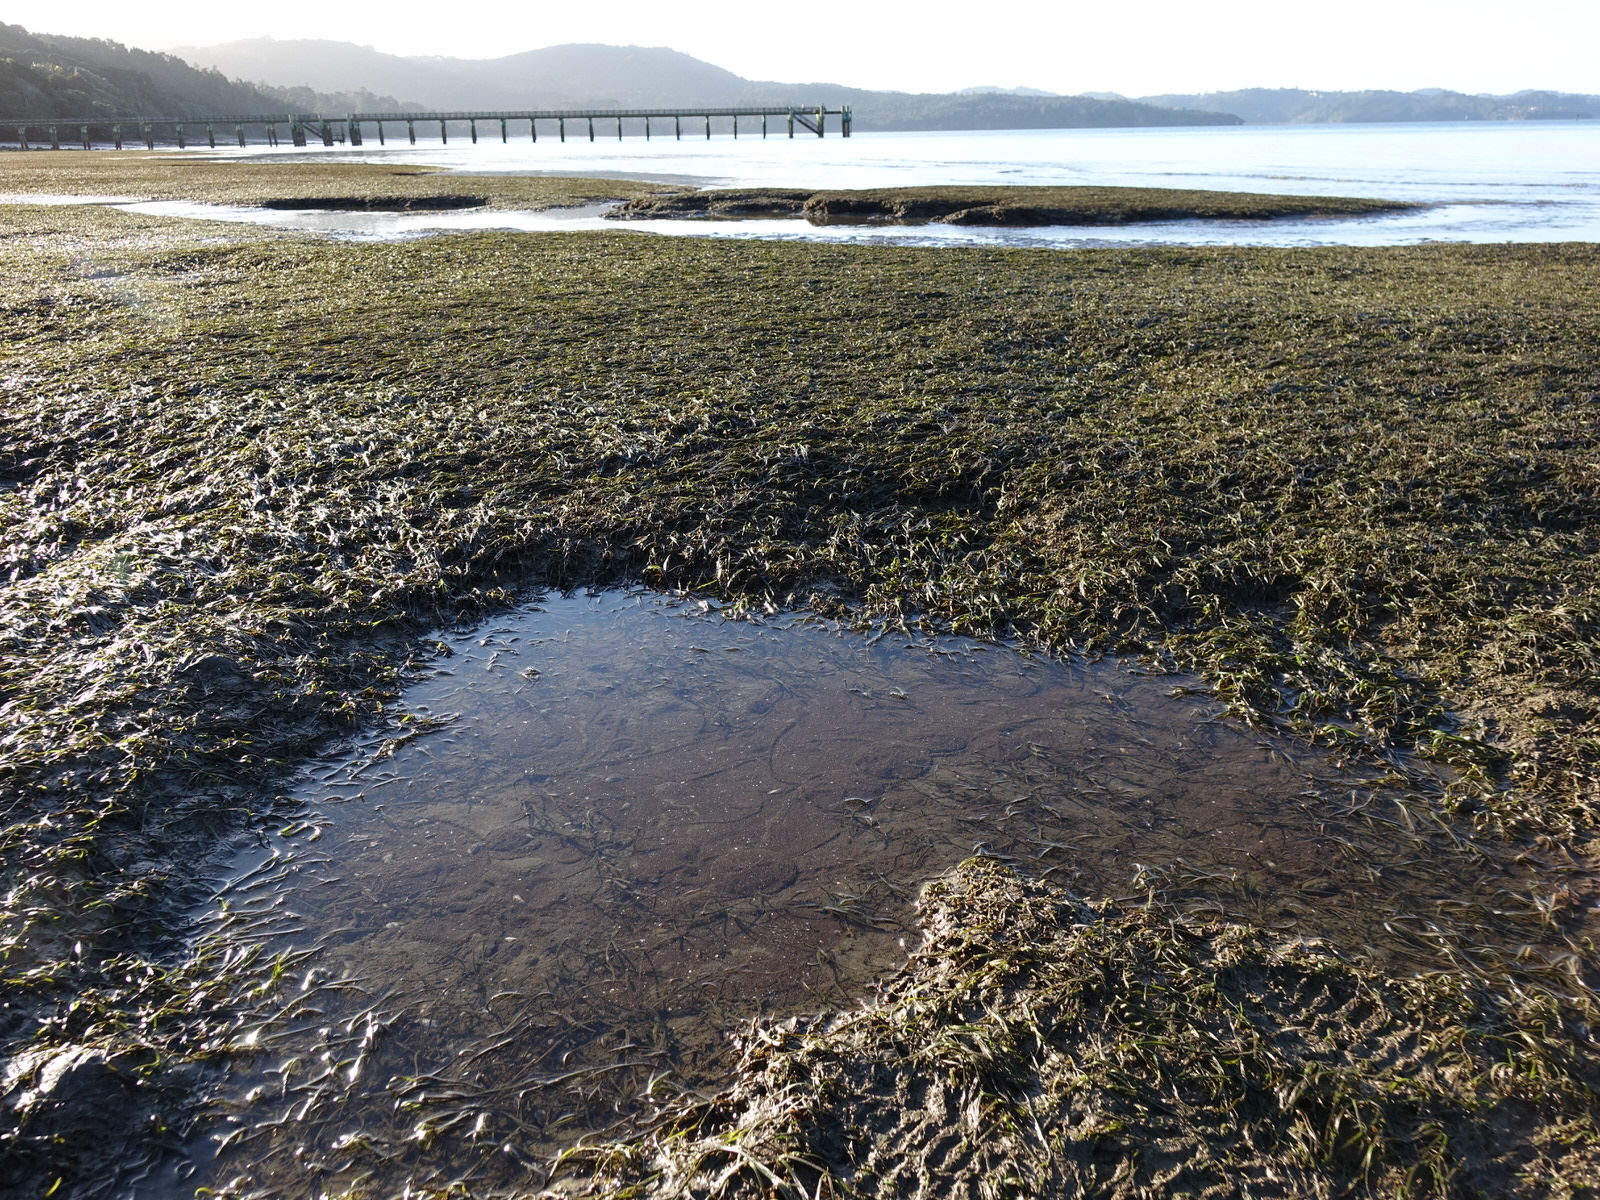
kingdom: Animalia
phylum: Echinodermata
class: Echinoidea
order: Clypeasteroida
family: Clypeasteridae
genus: Fellaster
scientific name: Fellaster zelandiae
